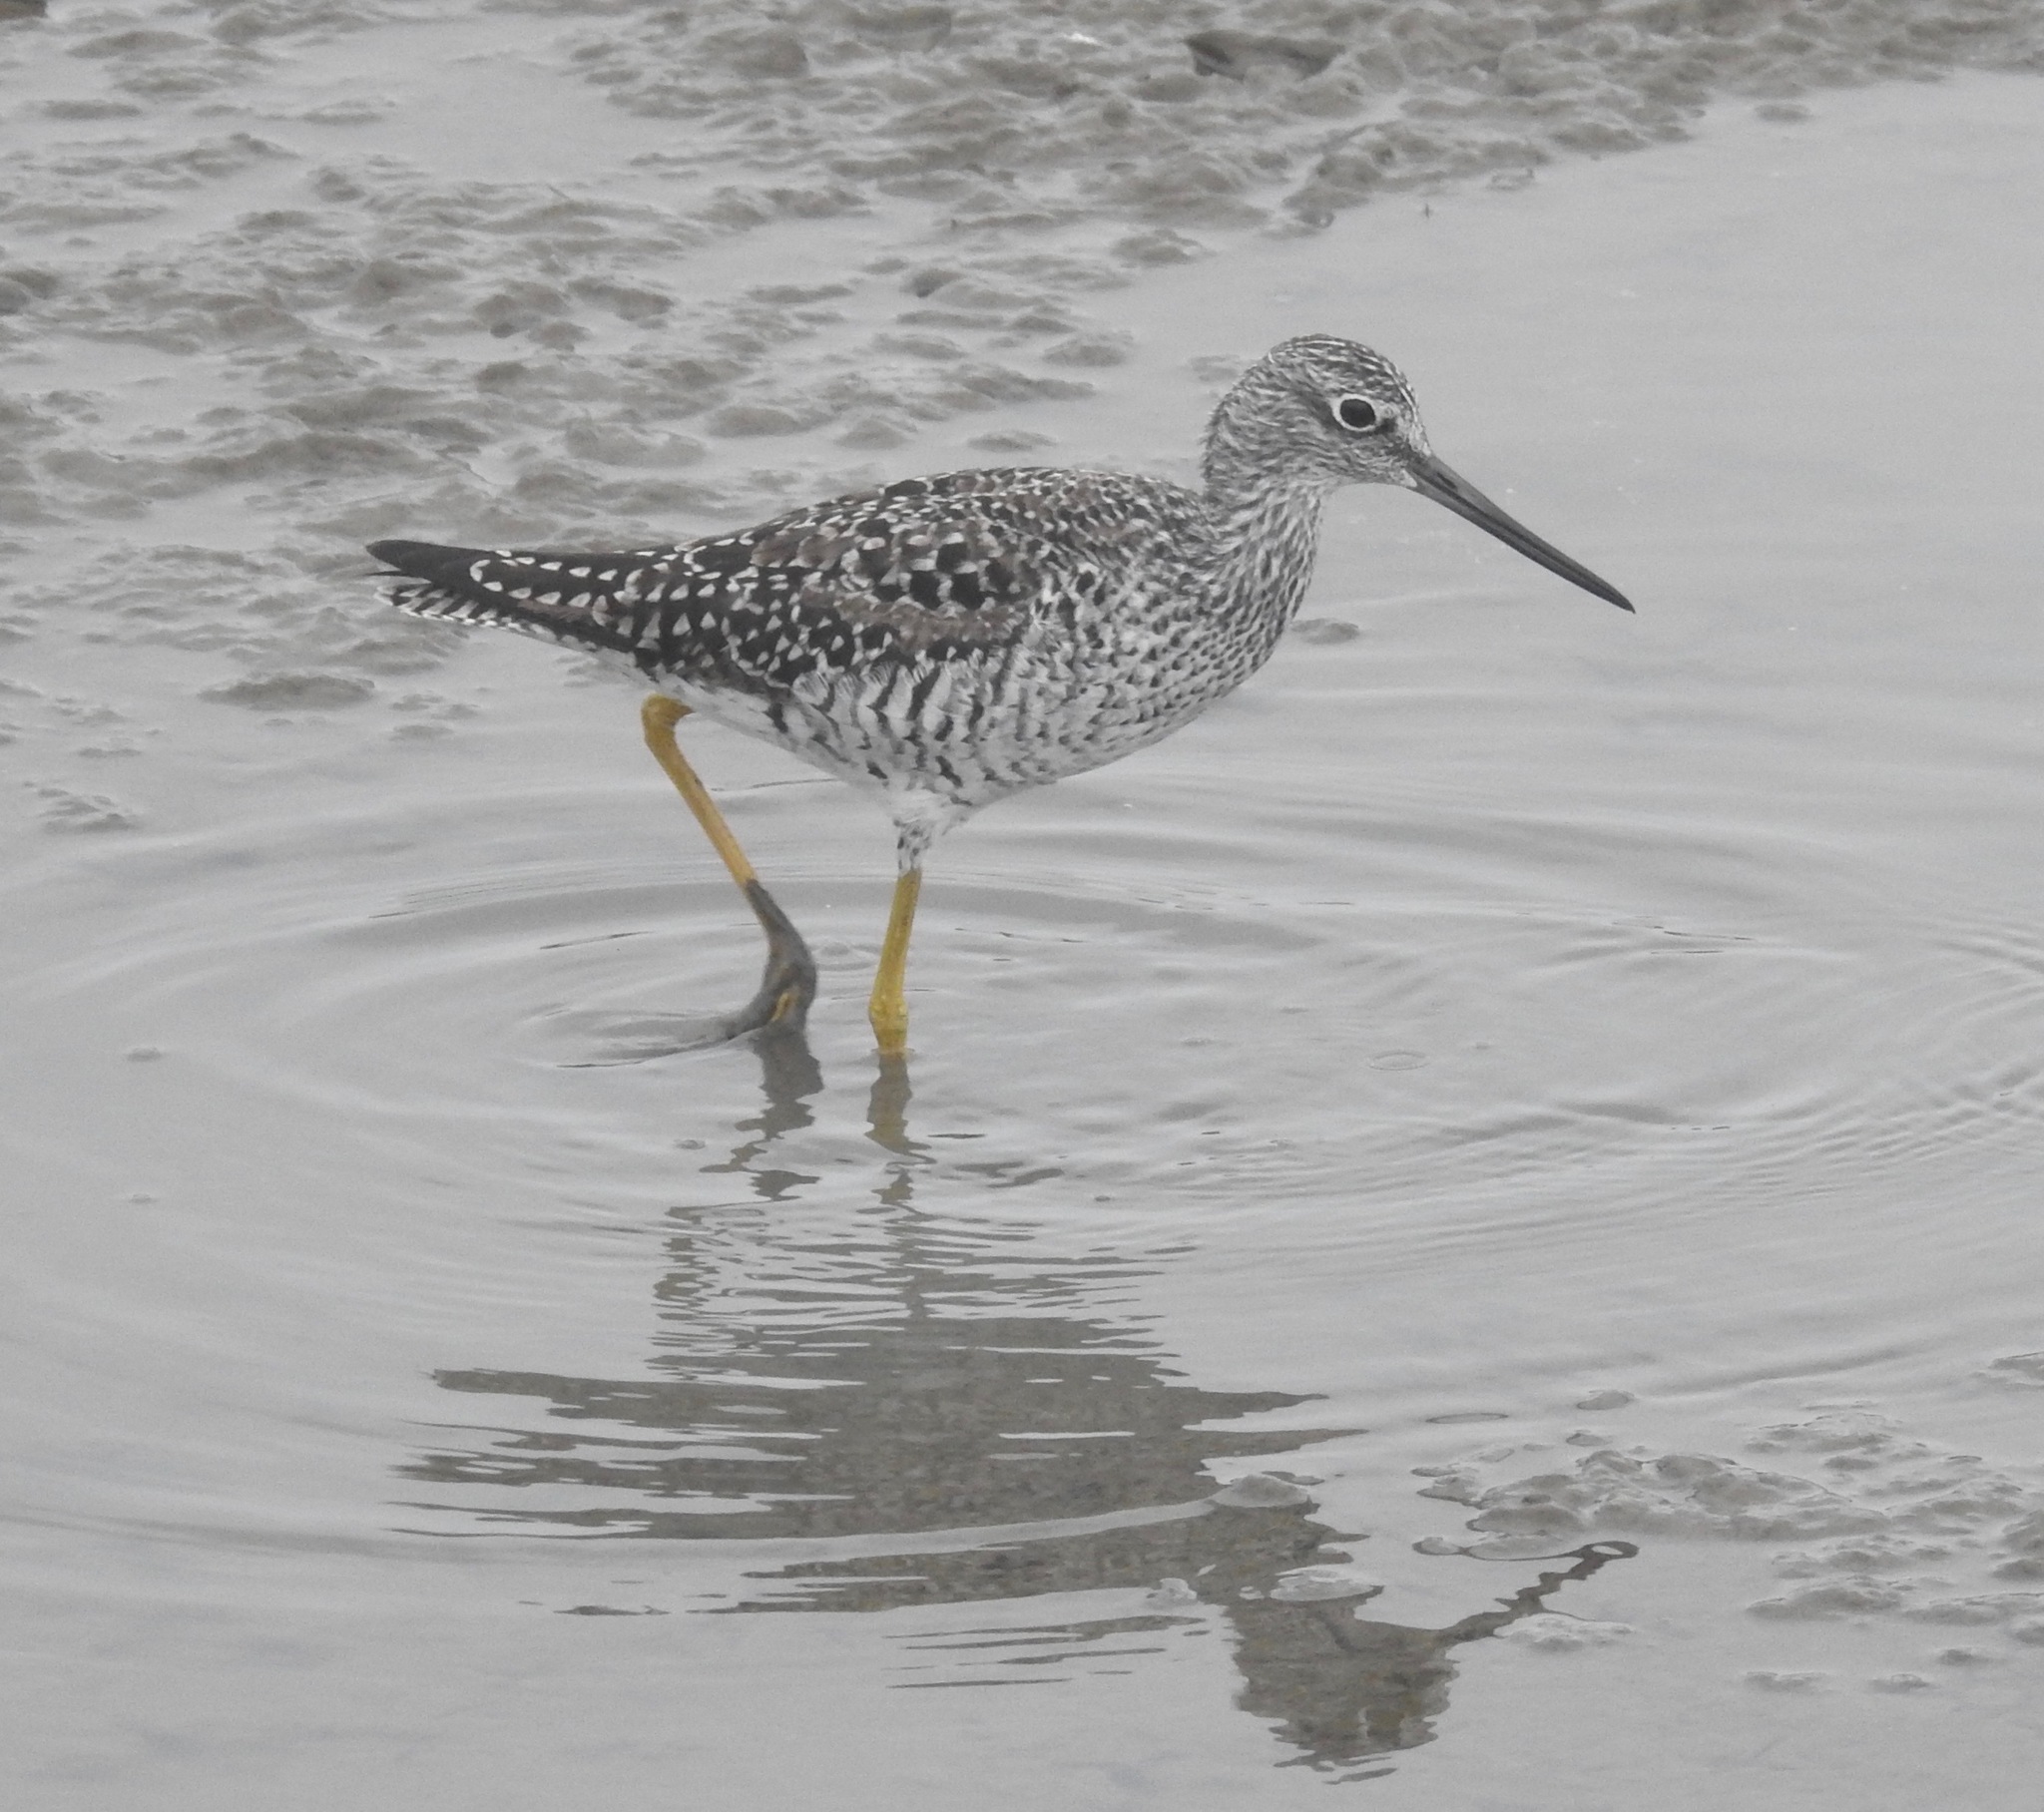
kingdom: Animalia
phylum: Chordata
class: Aves
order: Charadriiformes
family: Scolopacidae
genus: Tringa
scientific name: Tringa melanoleuca
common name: Greater yellowlegs
